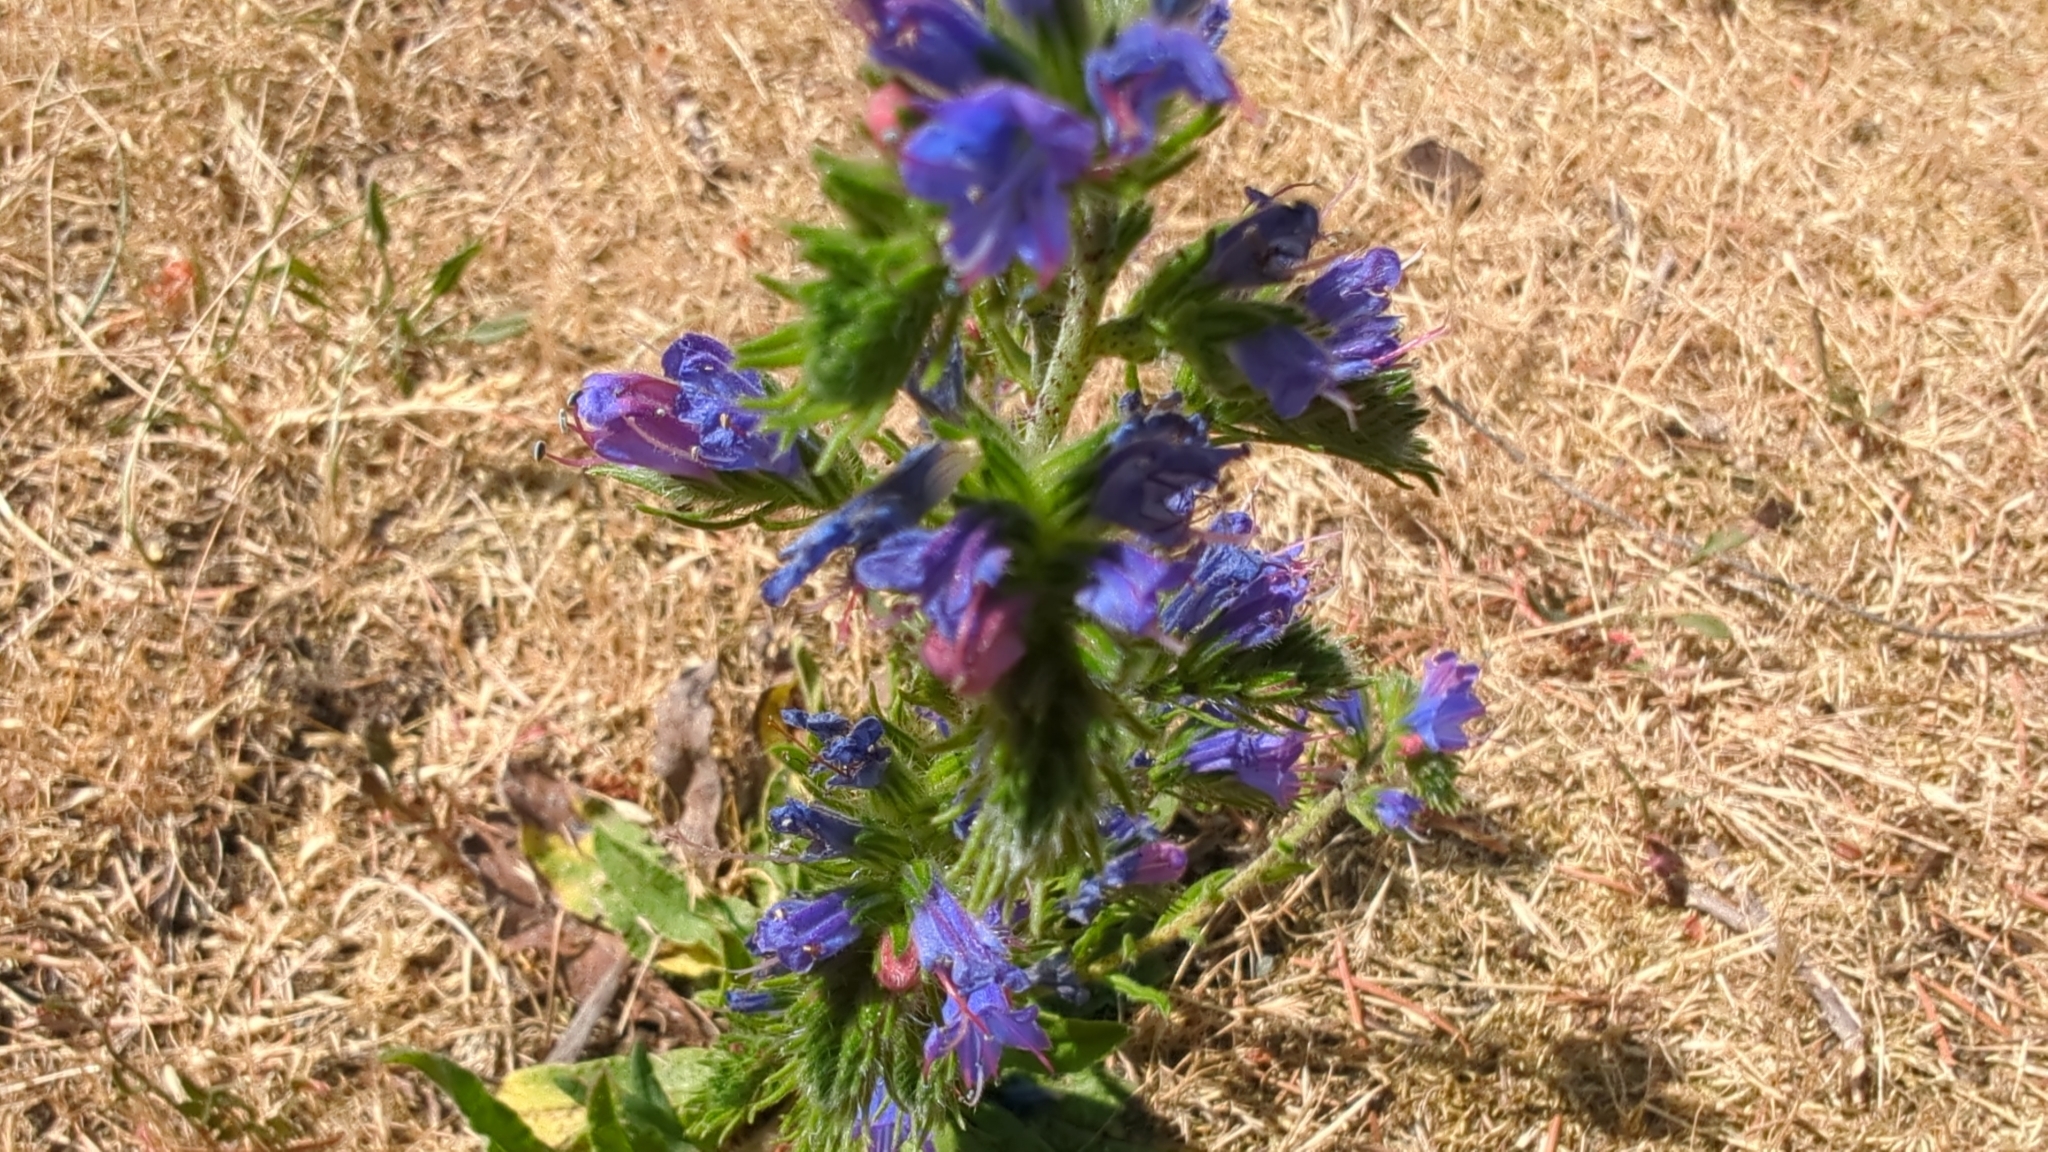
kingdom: Plantae
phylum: Tracheophyta
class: Magnoliopsida
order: Boraginales
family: Boraginaceae
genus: Echium
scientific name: Echium vulgare
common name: Common viper's bugloss
